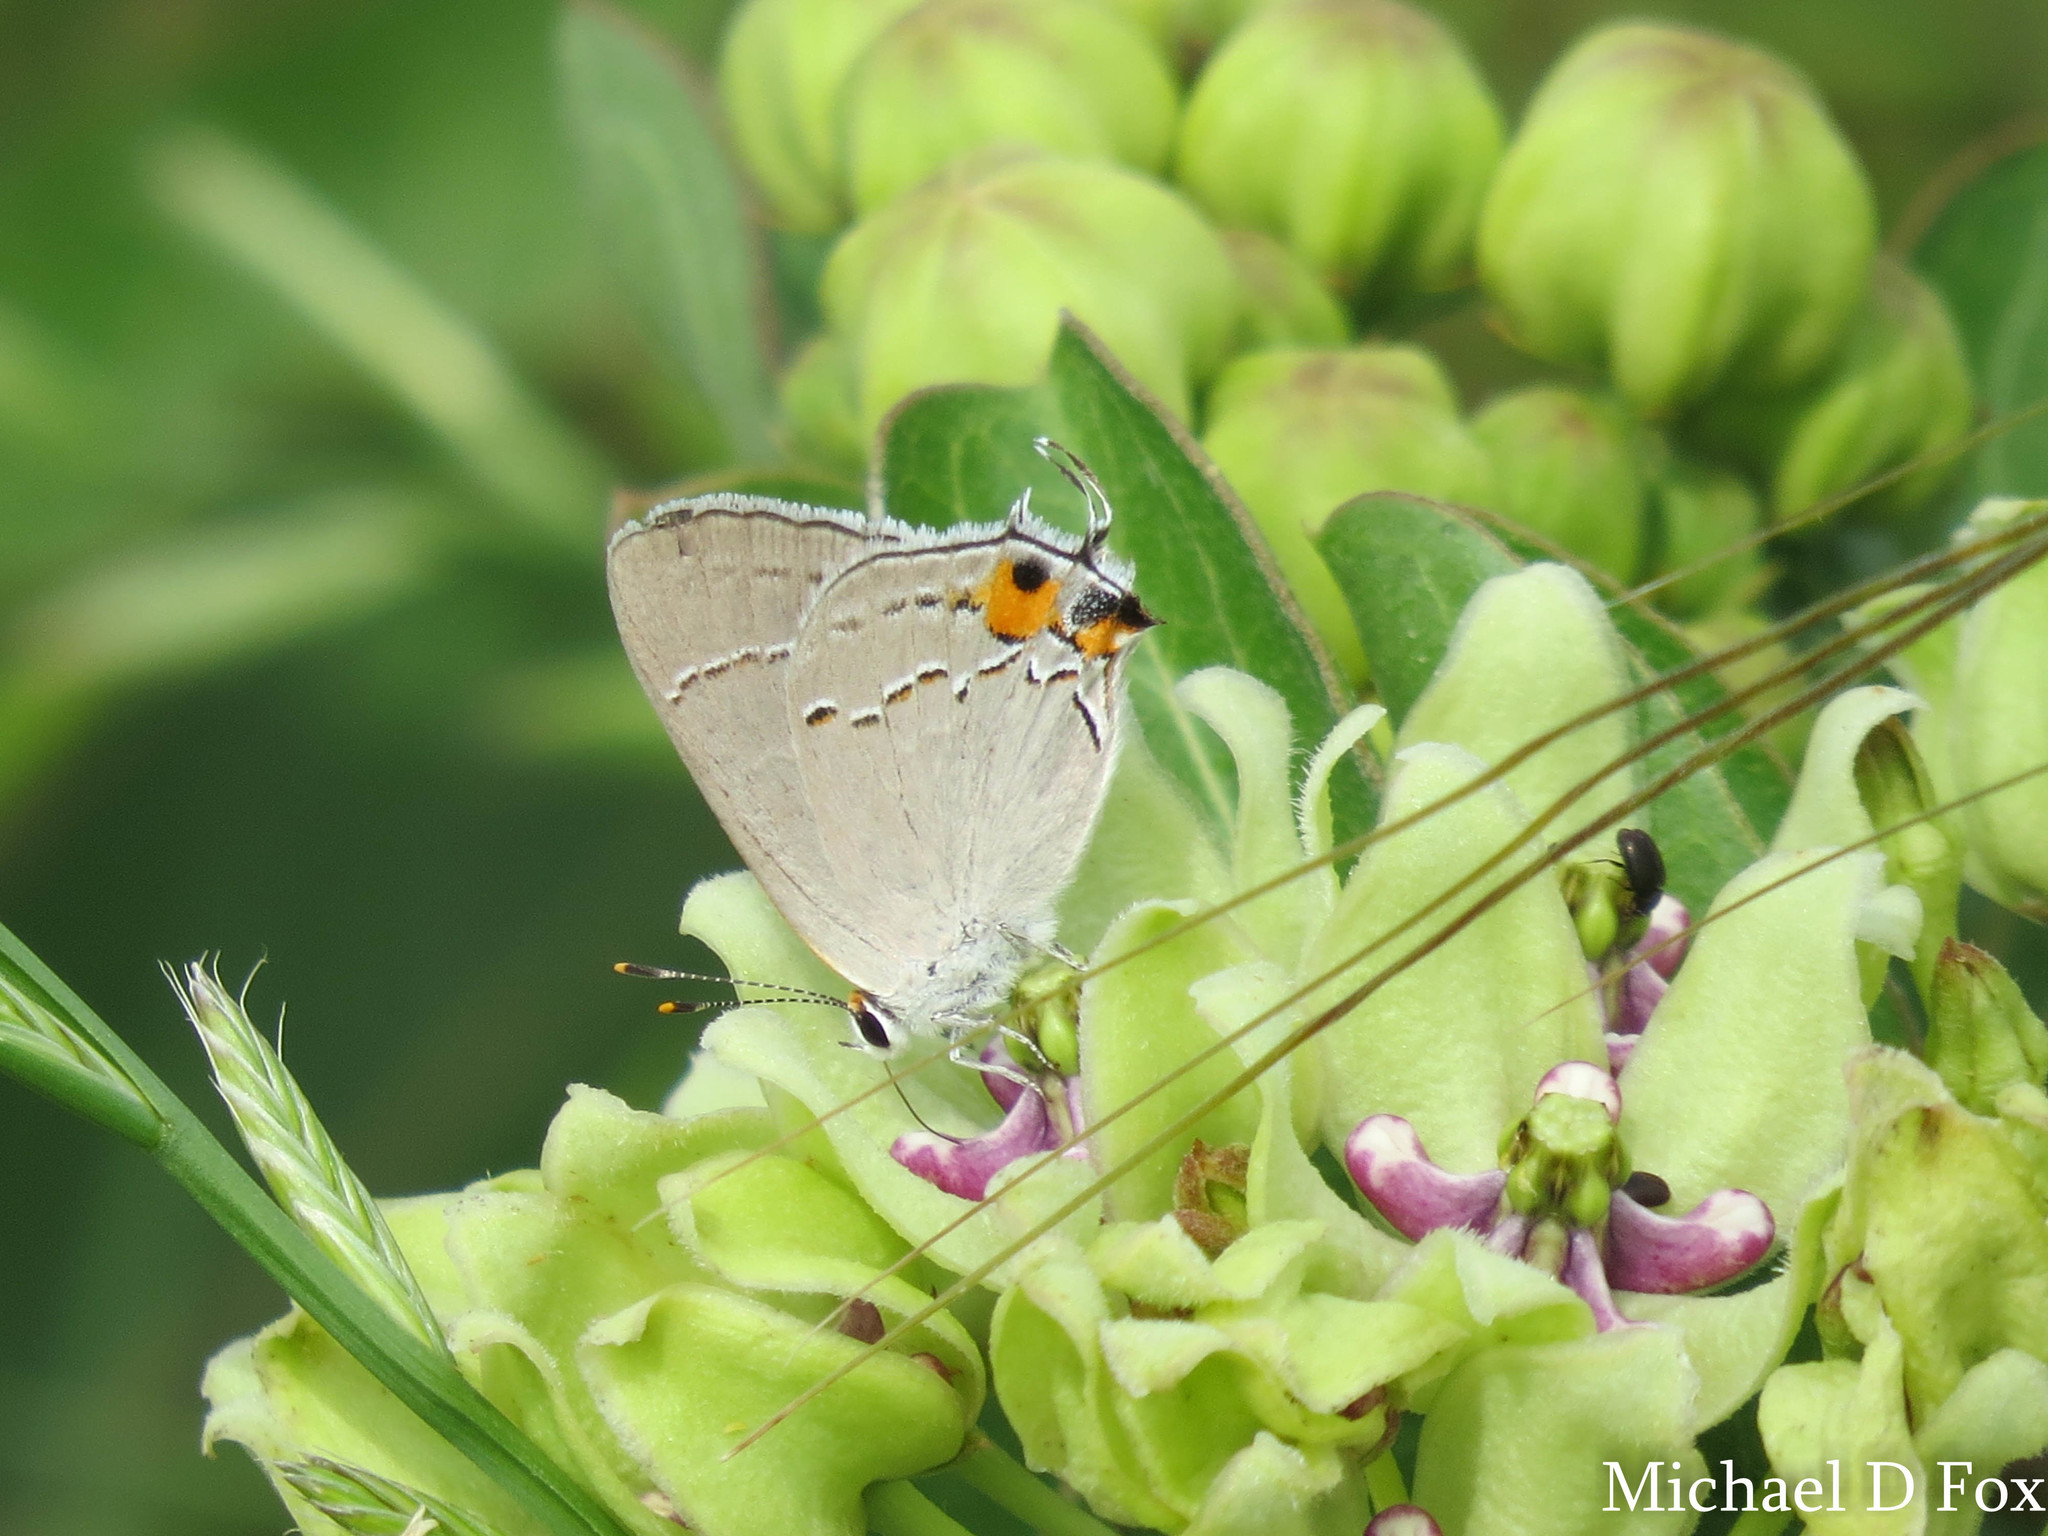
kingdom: Animalia
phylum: Arthropoda
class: Insecta
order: Lepidoptera
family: Lycaenidae
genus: Strymon
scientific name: Strymon melinus
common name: Gray hairstreak
